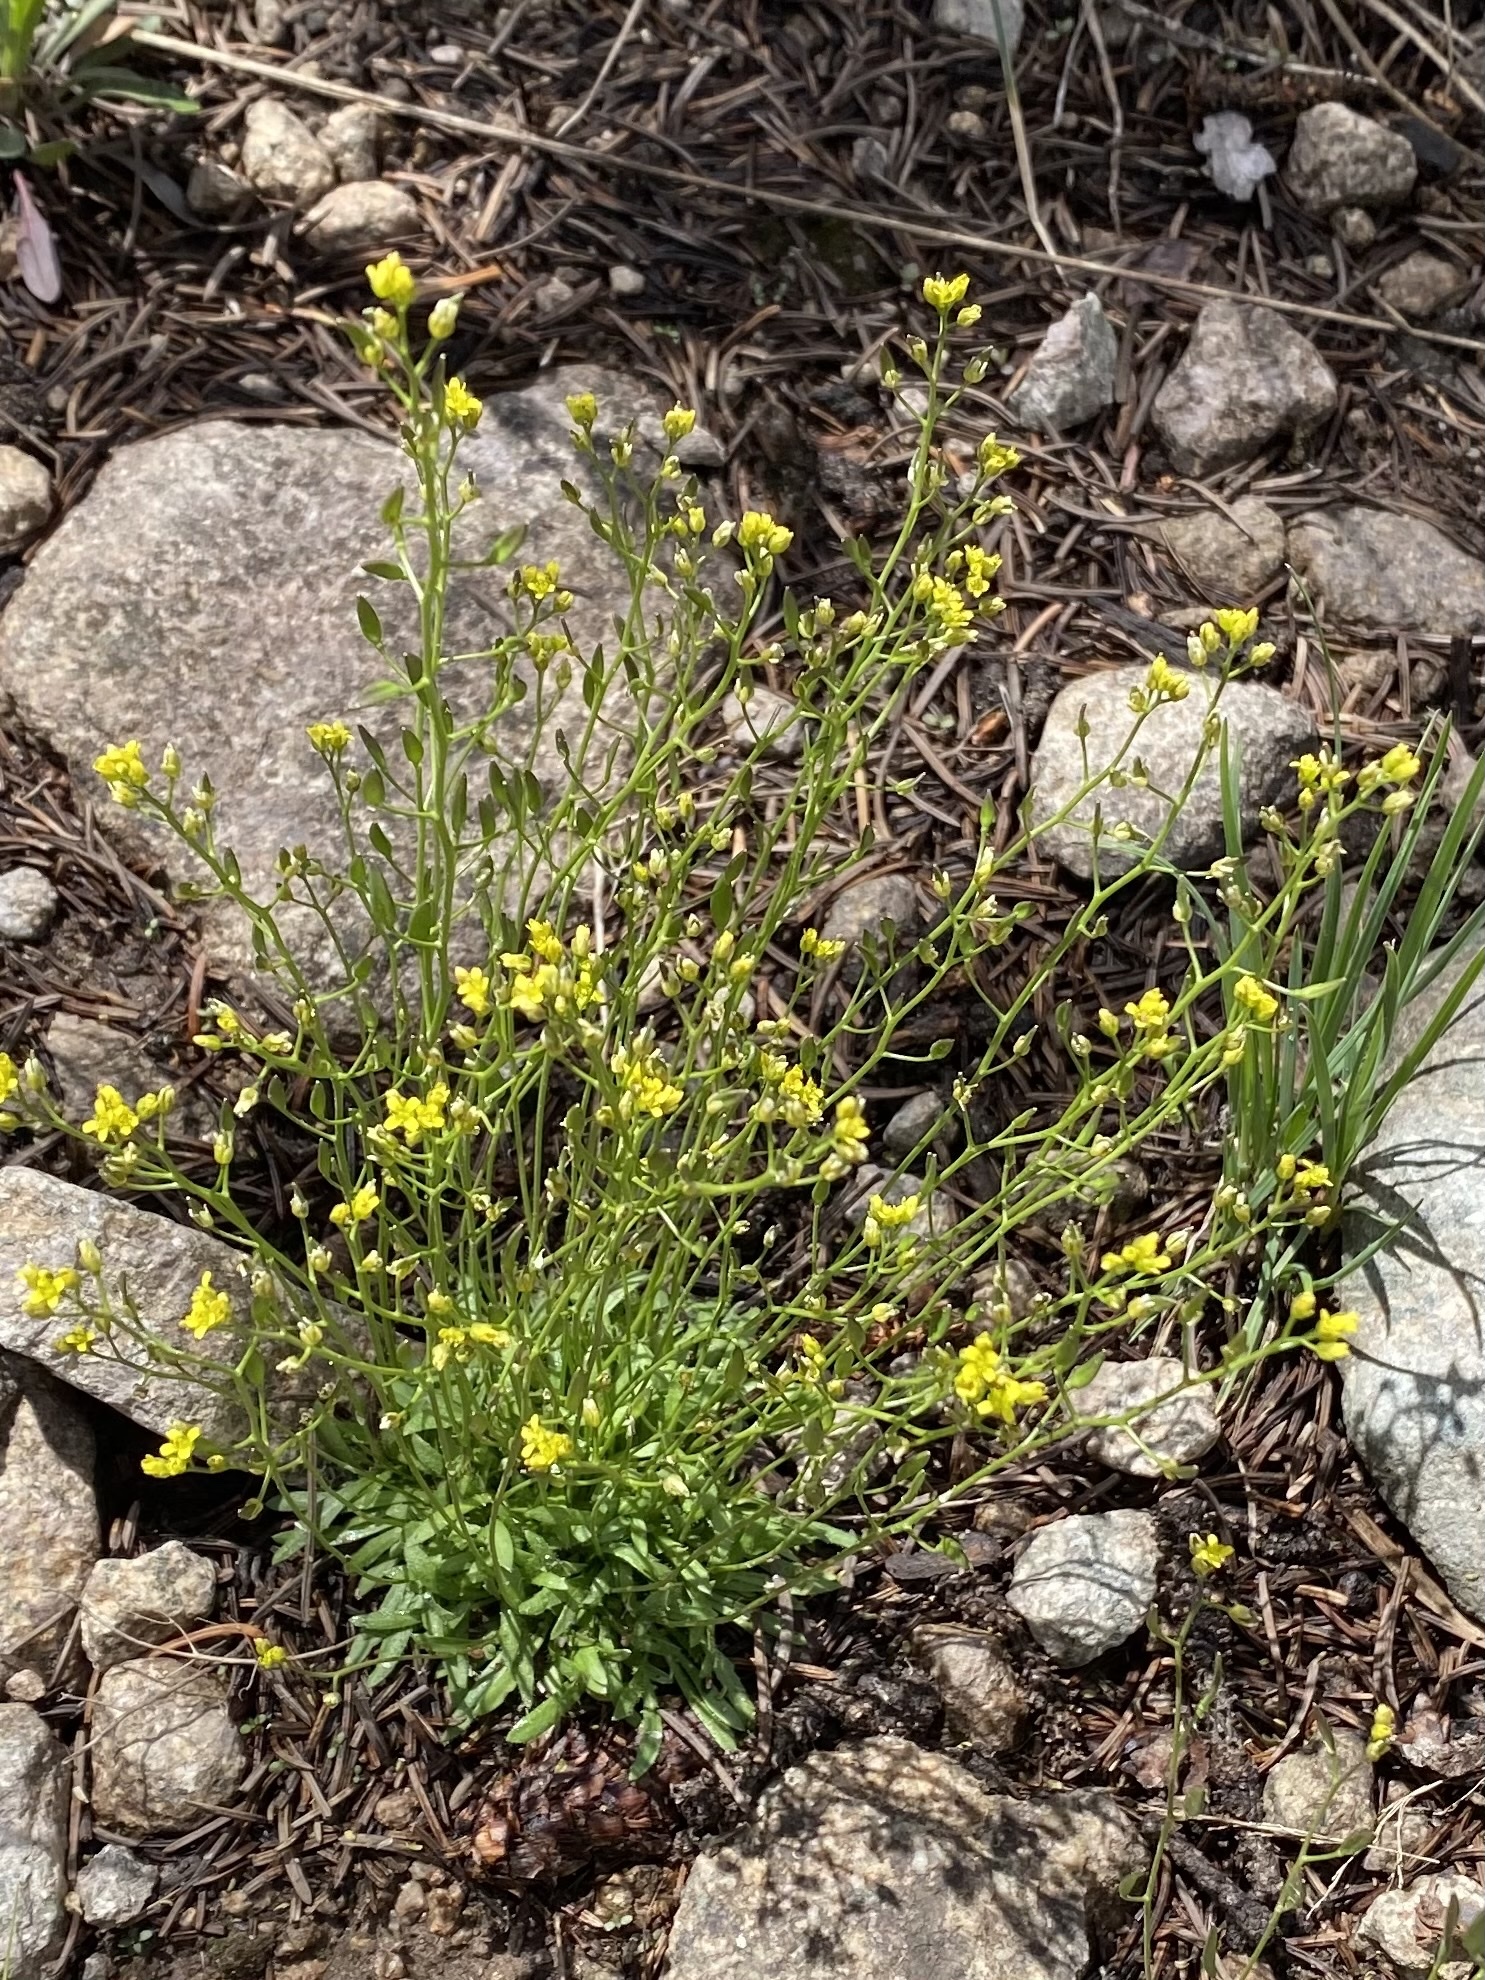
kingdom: Plantae
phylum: Tracheophyta
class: Magnoliopsida
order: Brassicales
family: Brassicaceae
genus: Draba
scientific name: Draba
